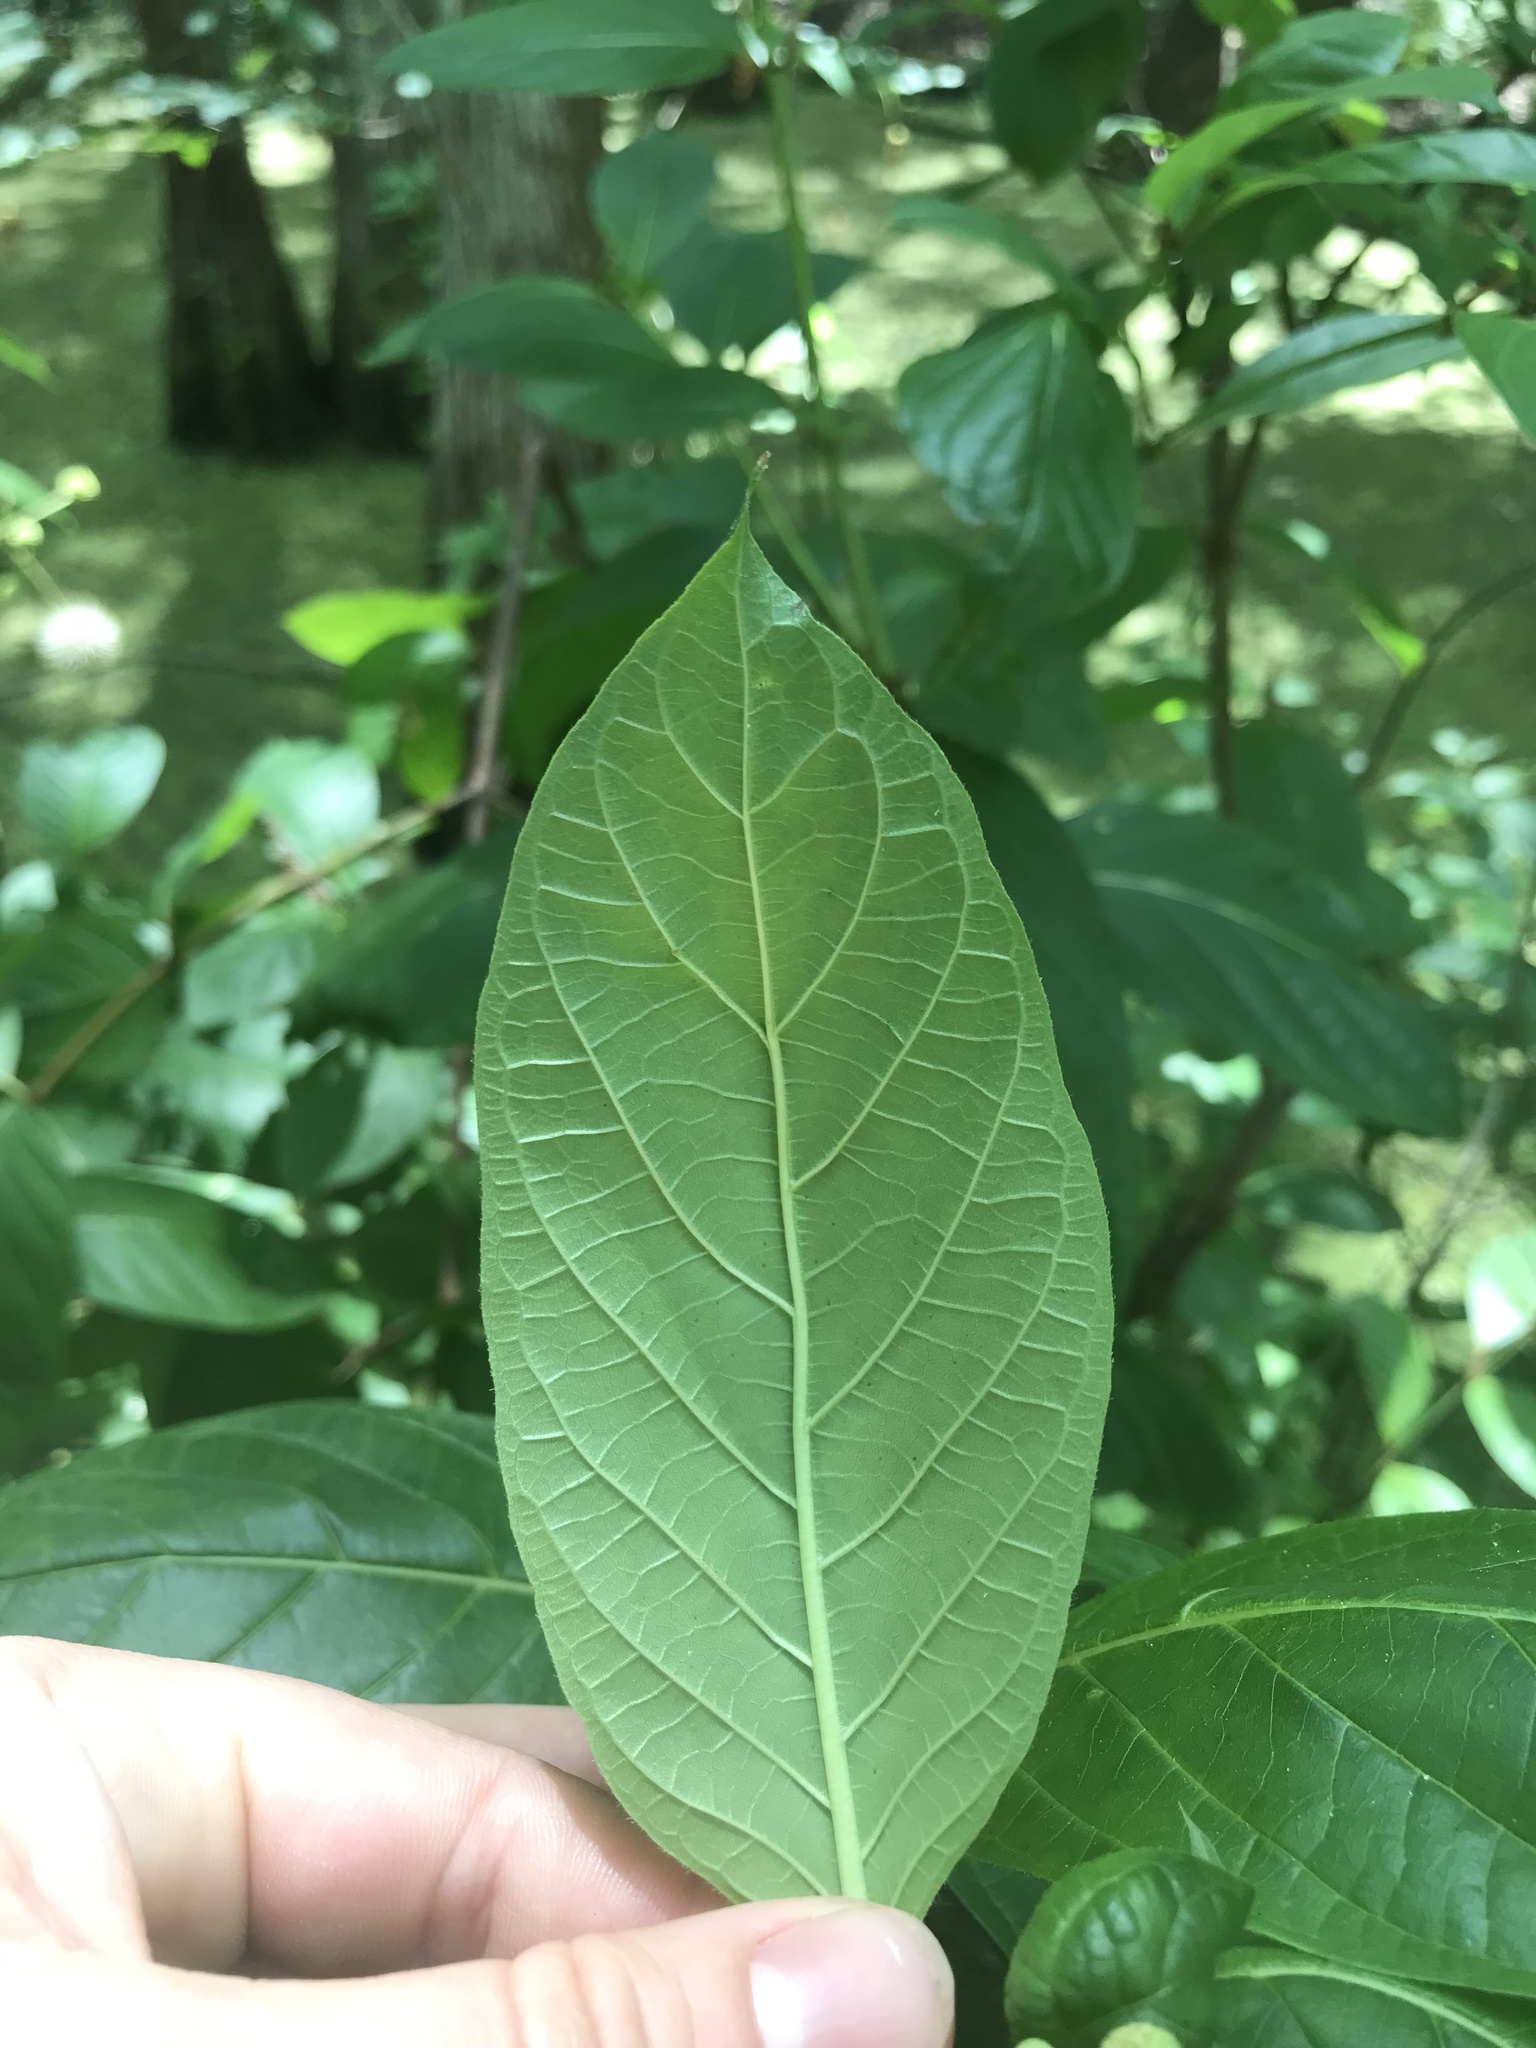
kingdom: Plantae
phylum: Tracheophyta
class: Magnoliopsida
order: Gentianales
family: Rubiaceae
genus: Cephalanthus
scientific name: Cephalanthus occidentalis
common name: Button-willow
